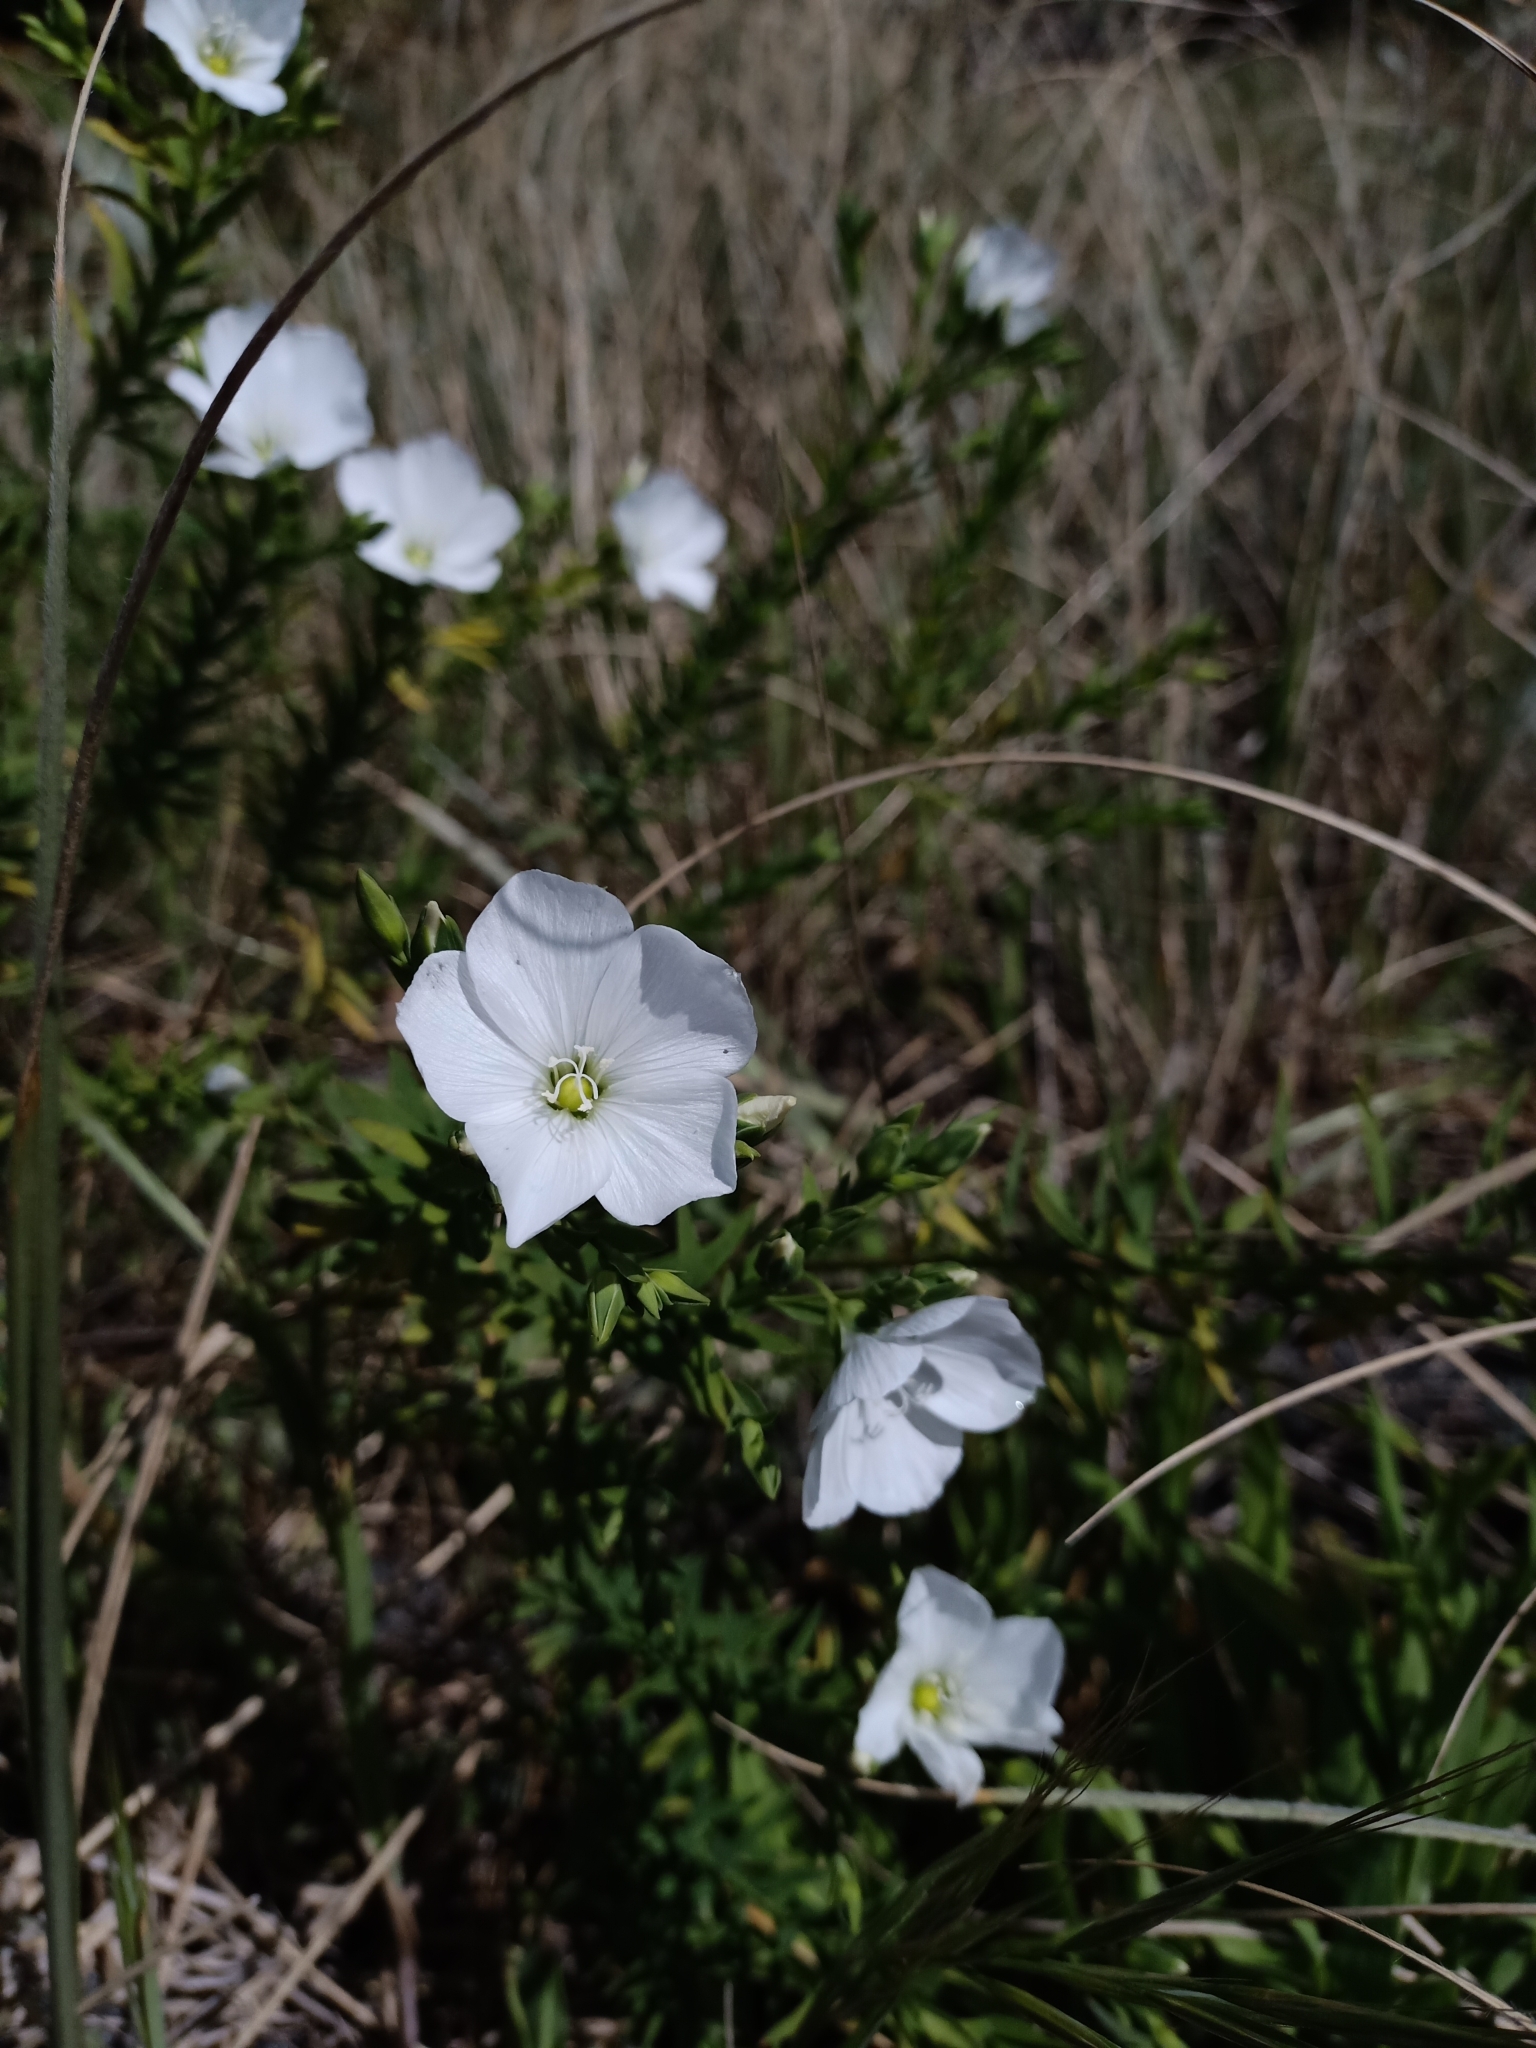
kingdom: Plantae
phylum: Tracheophyta
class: Magnoliopsida
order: Malpighiales
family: Linaceae
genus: Linum
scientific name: Linum monogynum
